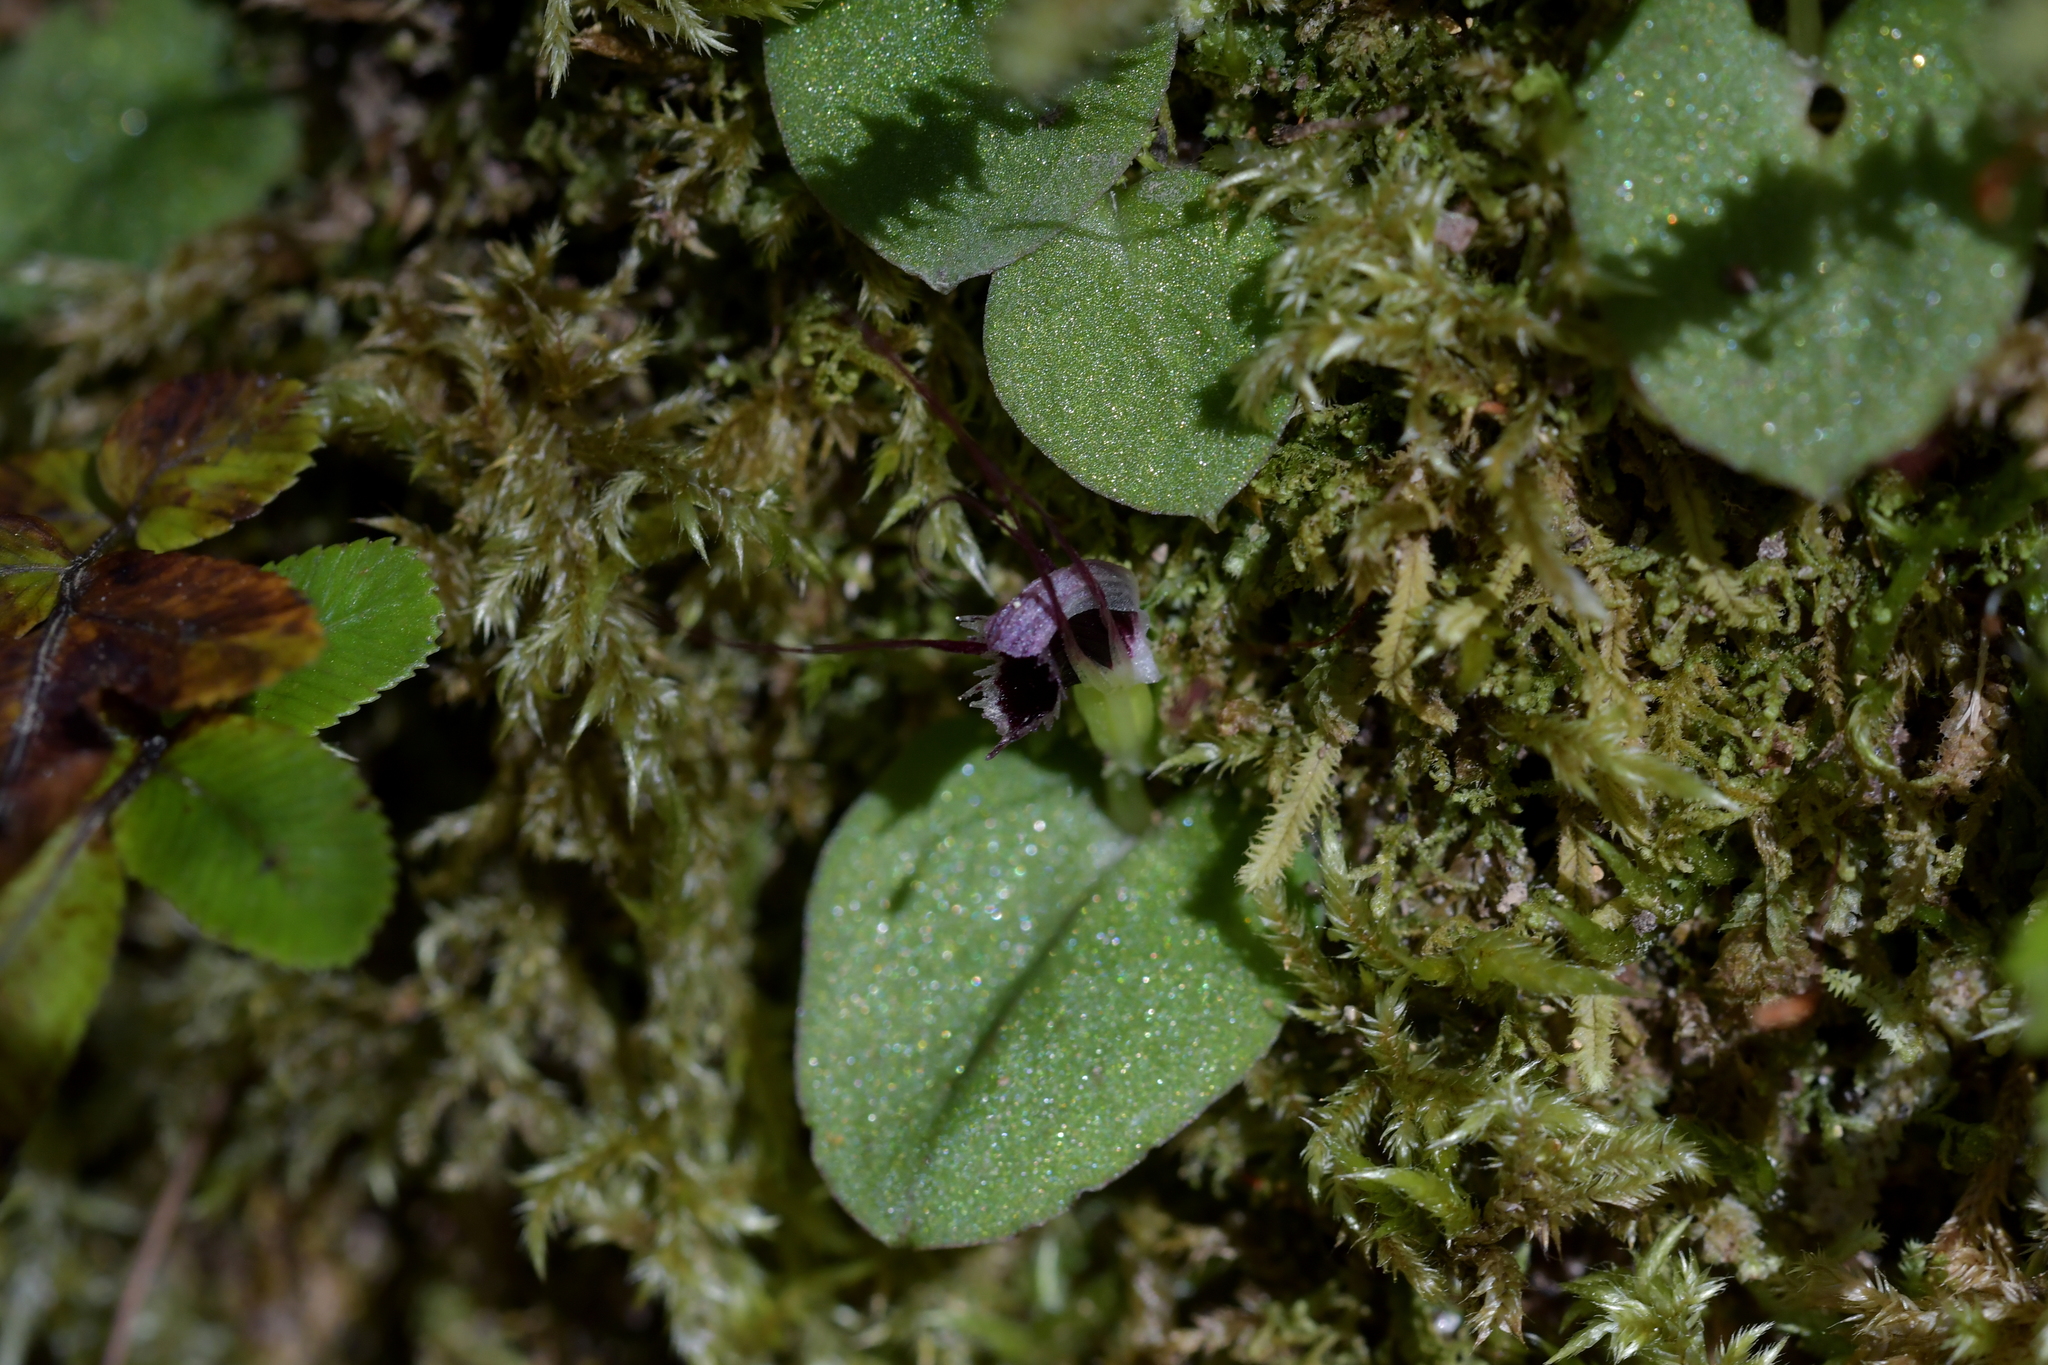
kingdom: Plantae
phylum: Tracheophyta
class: Liliopsida
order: Asparagales
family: Orchidaceae
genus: Corybas
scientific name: Corybas oblongus
